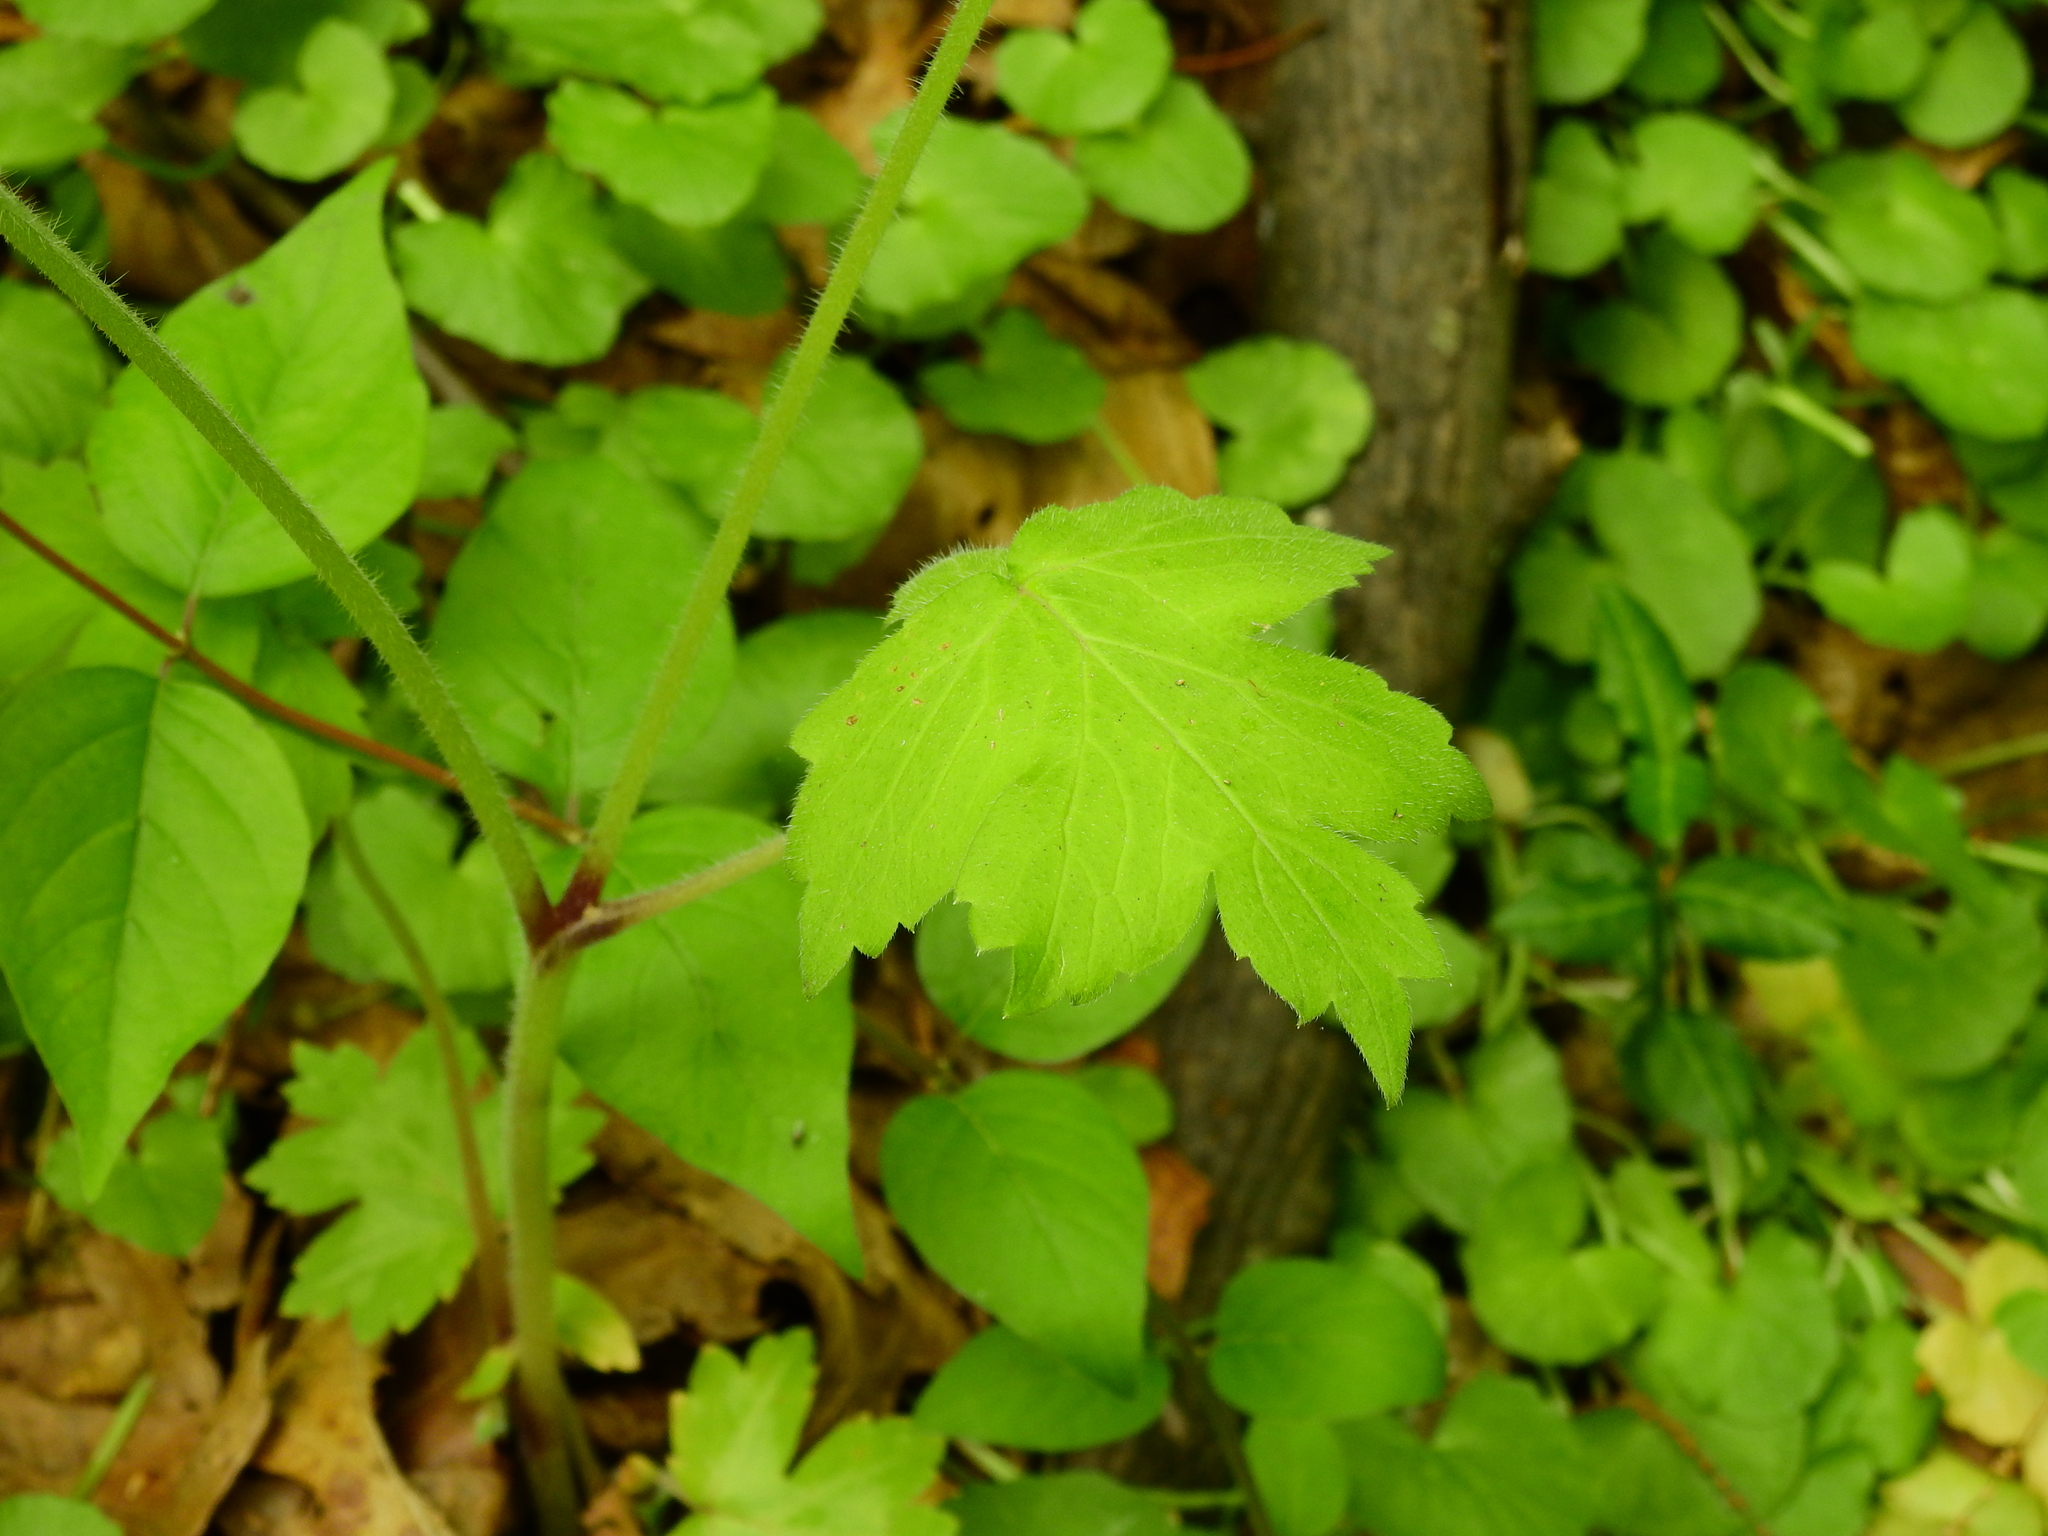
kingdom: Plantae
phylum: Tracheophyta
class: Magnoliopsida
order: Boraginales
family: Hydrophyllaceae
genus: Hydrophyllum
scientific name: Hydrophyllum appendiculatum
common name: Appendaged waterleaf
